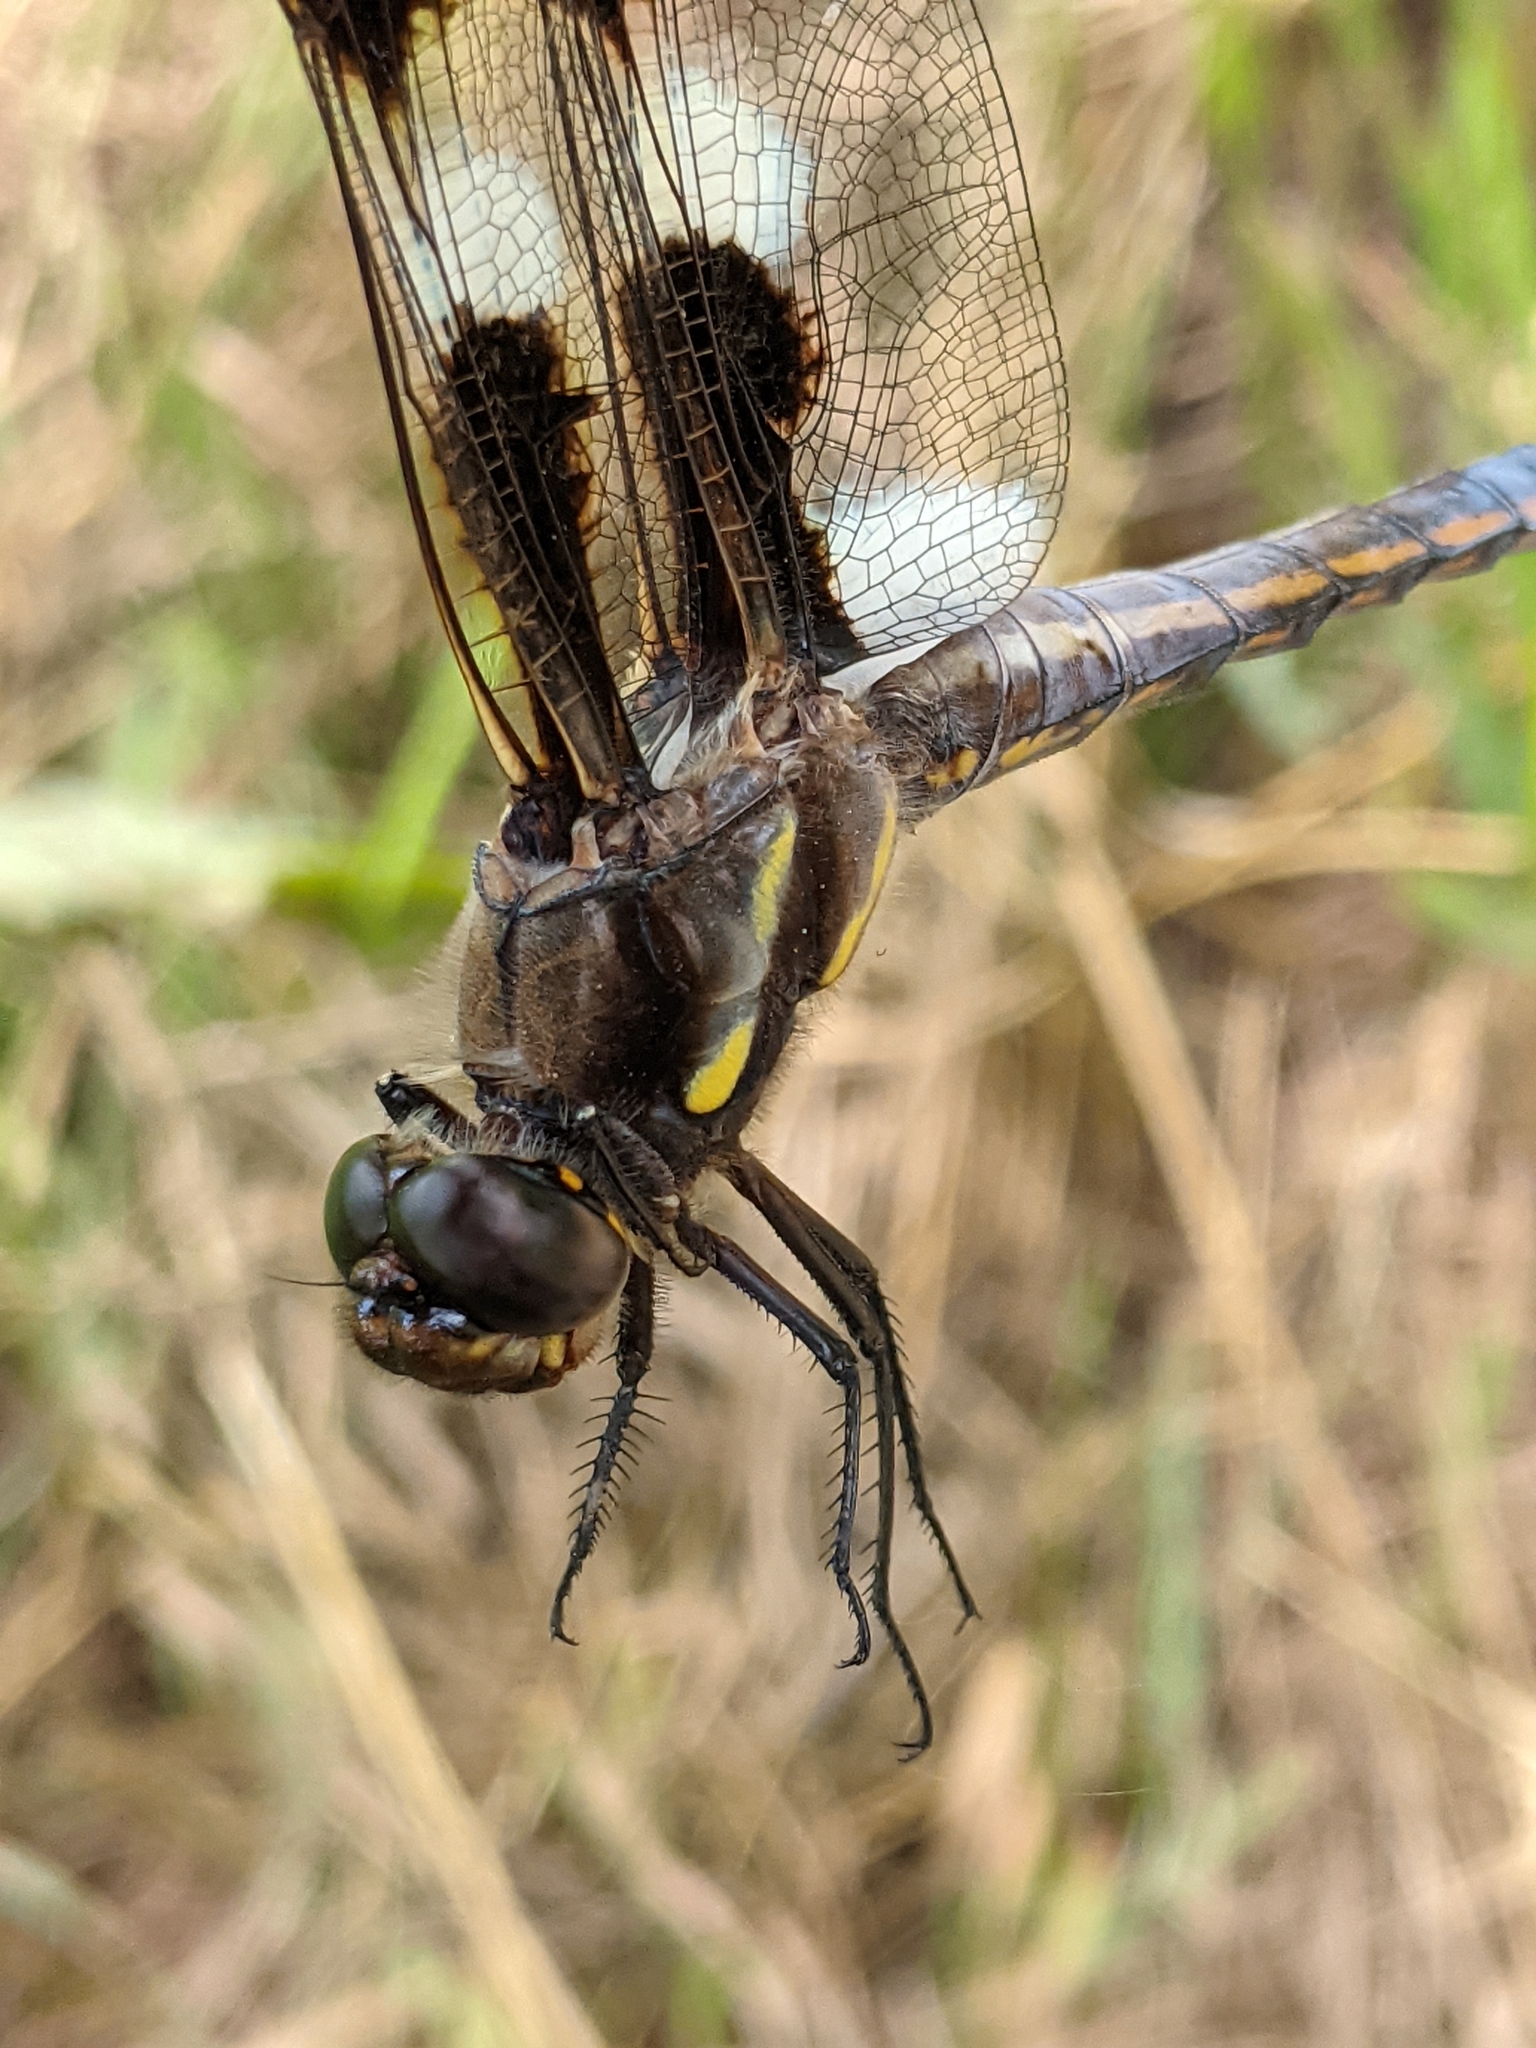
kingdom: Animalia
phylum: Arthropoda
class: Insecta
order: Odonata
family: Libellulidae
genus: Libellula
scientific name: Libellula pulchella
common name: Twelve-spotted skimmer
